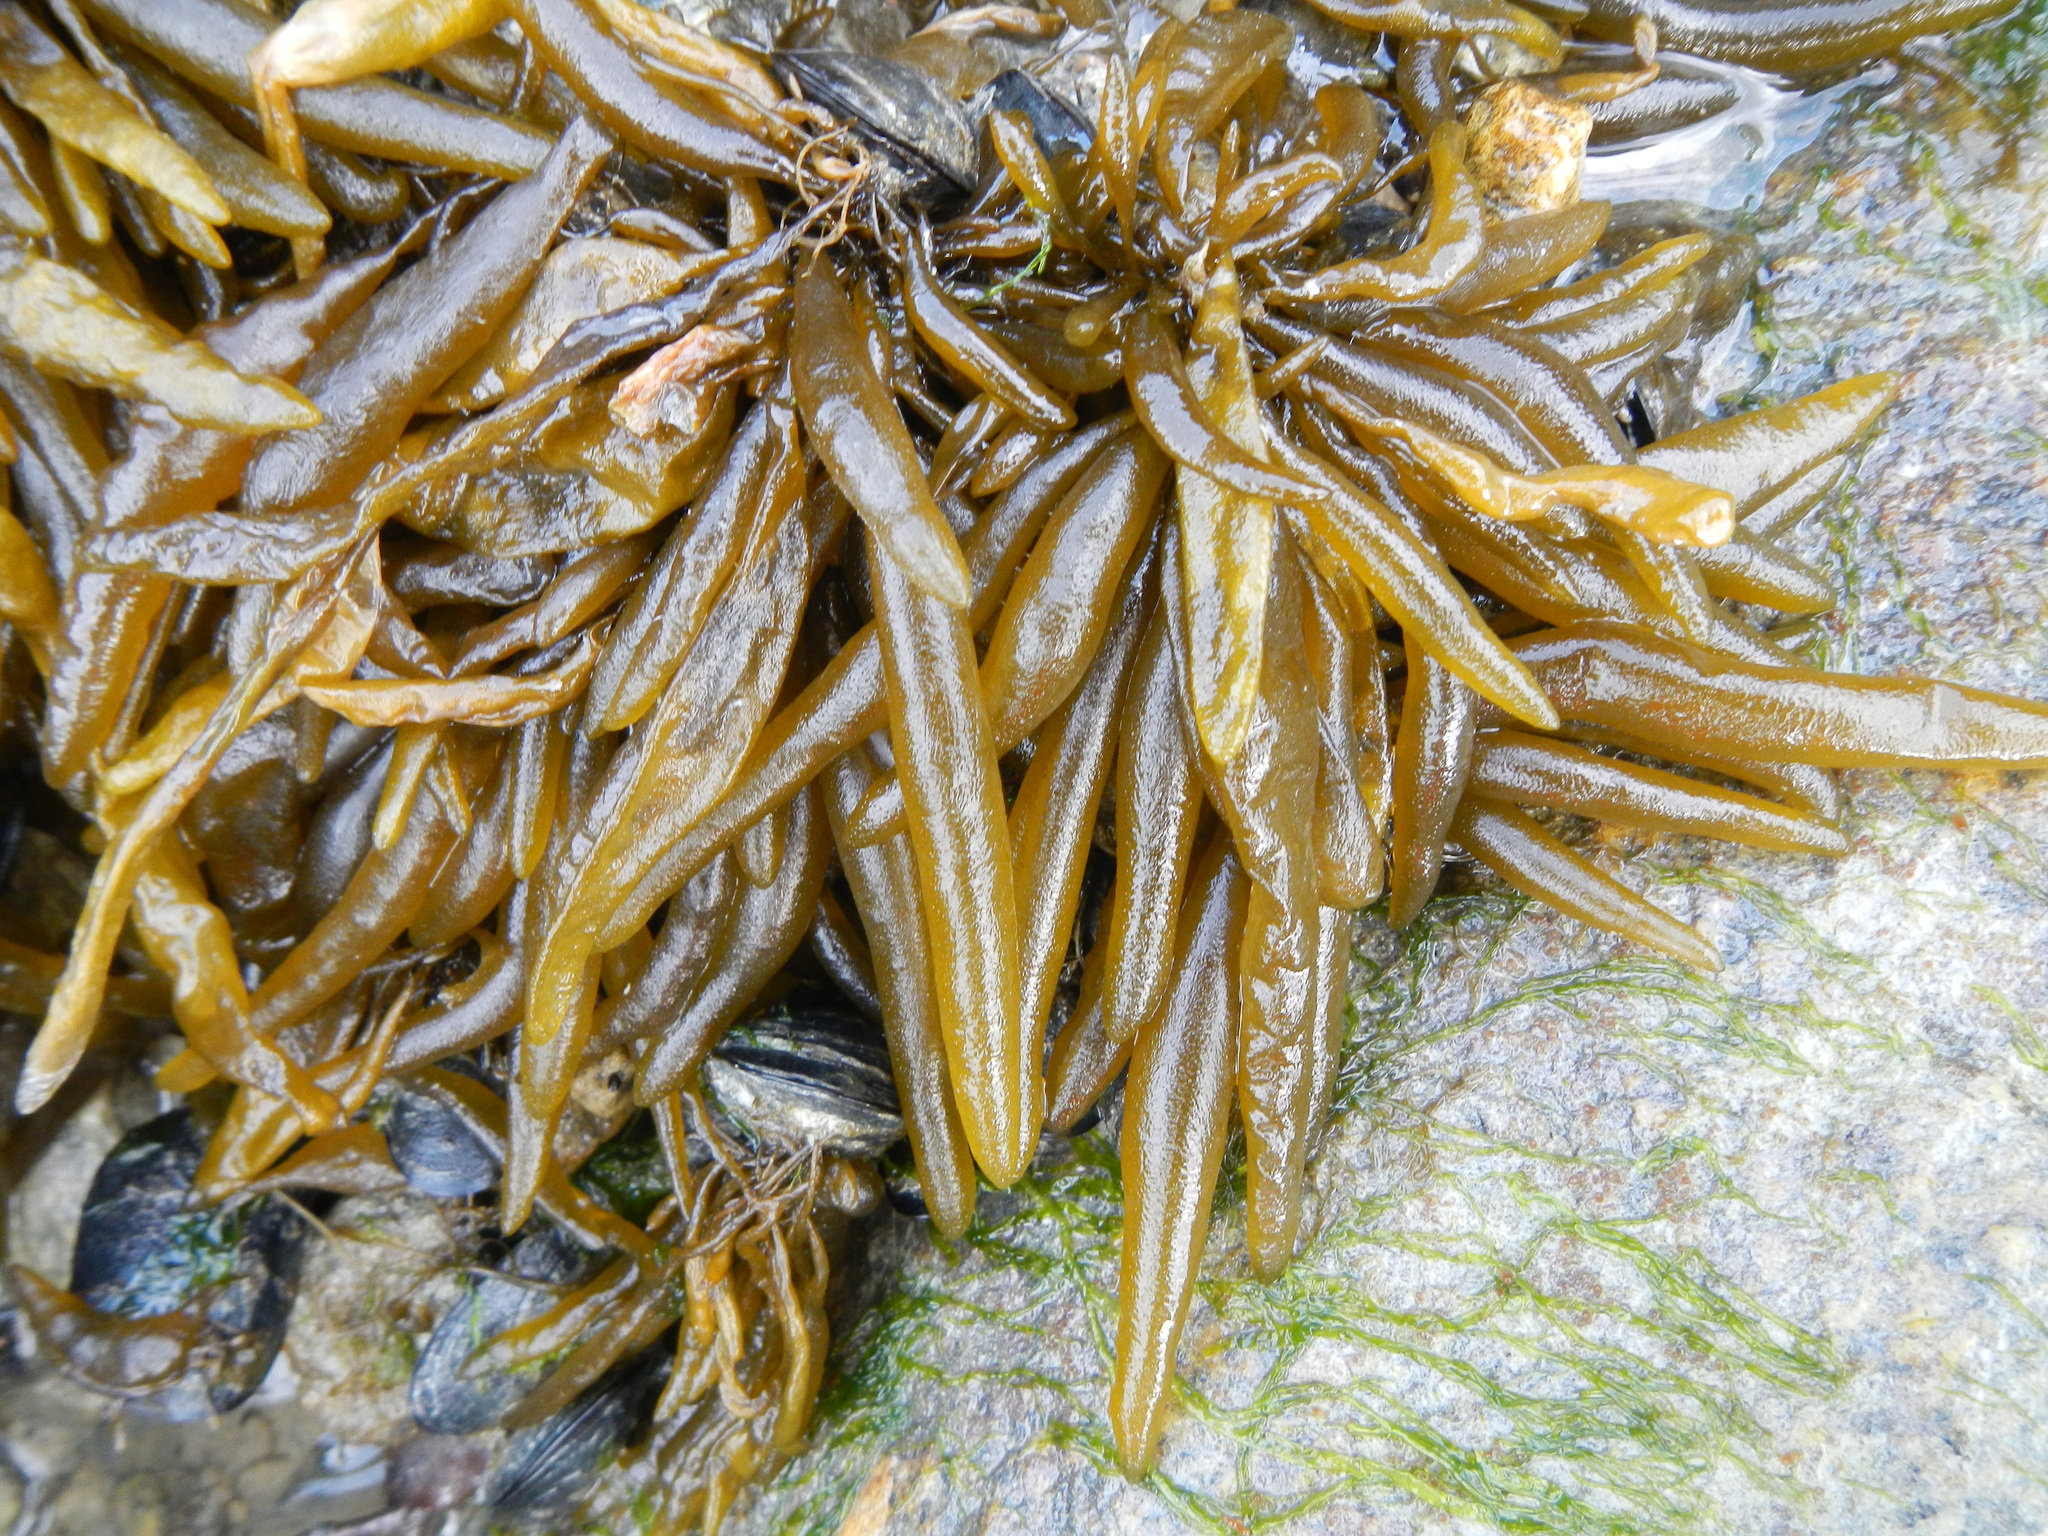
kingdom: Chromista
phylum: Ochrophyta
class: Phaeophyceae
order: Ectocarpales
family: Adenocystaceae
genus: Adenocystis
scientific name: Adenocystis utricularis
